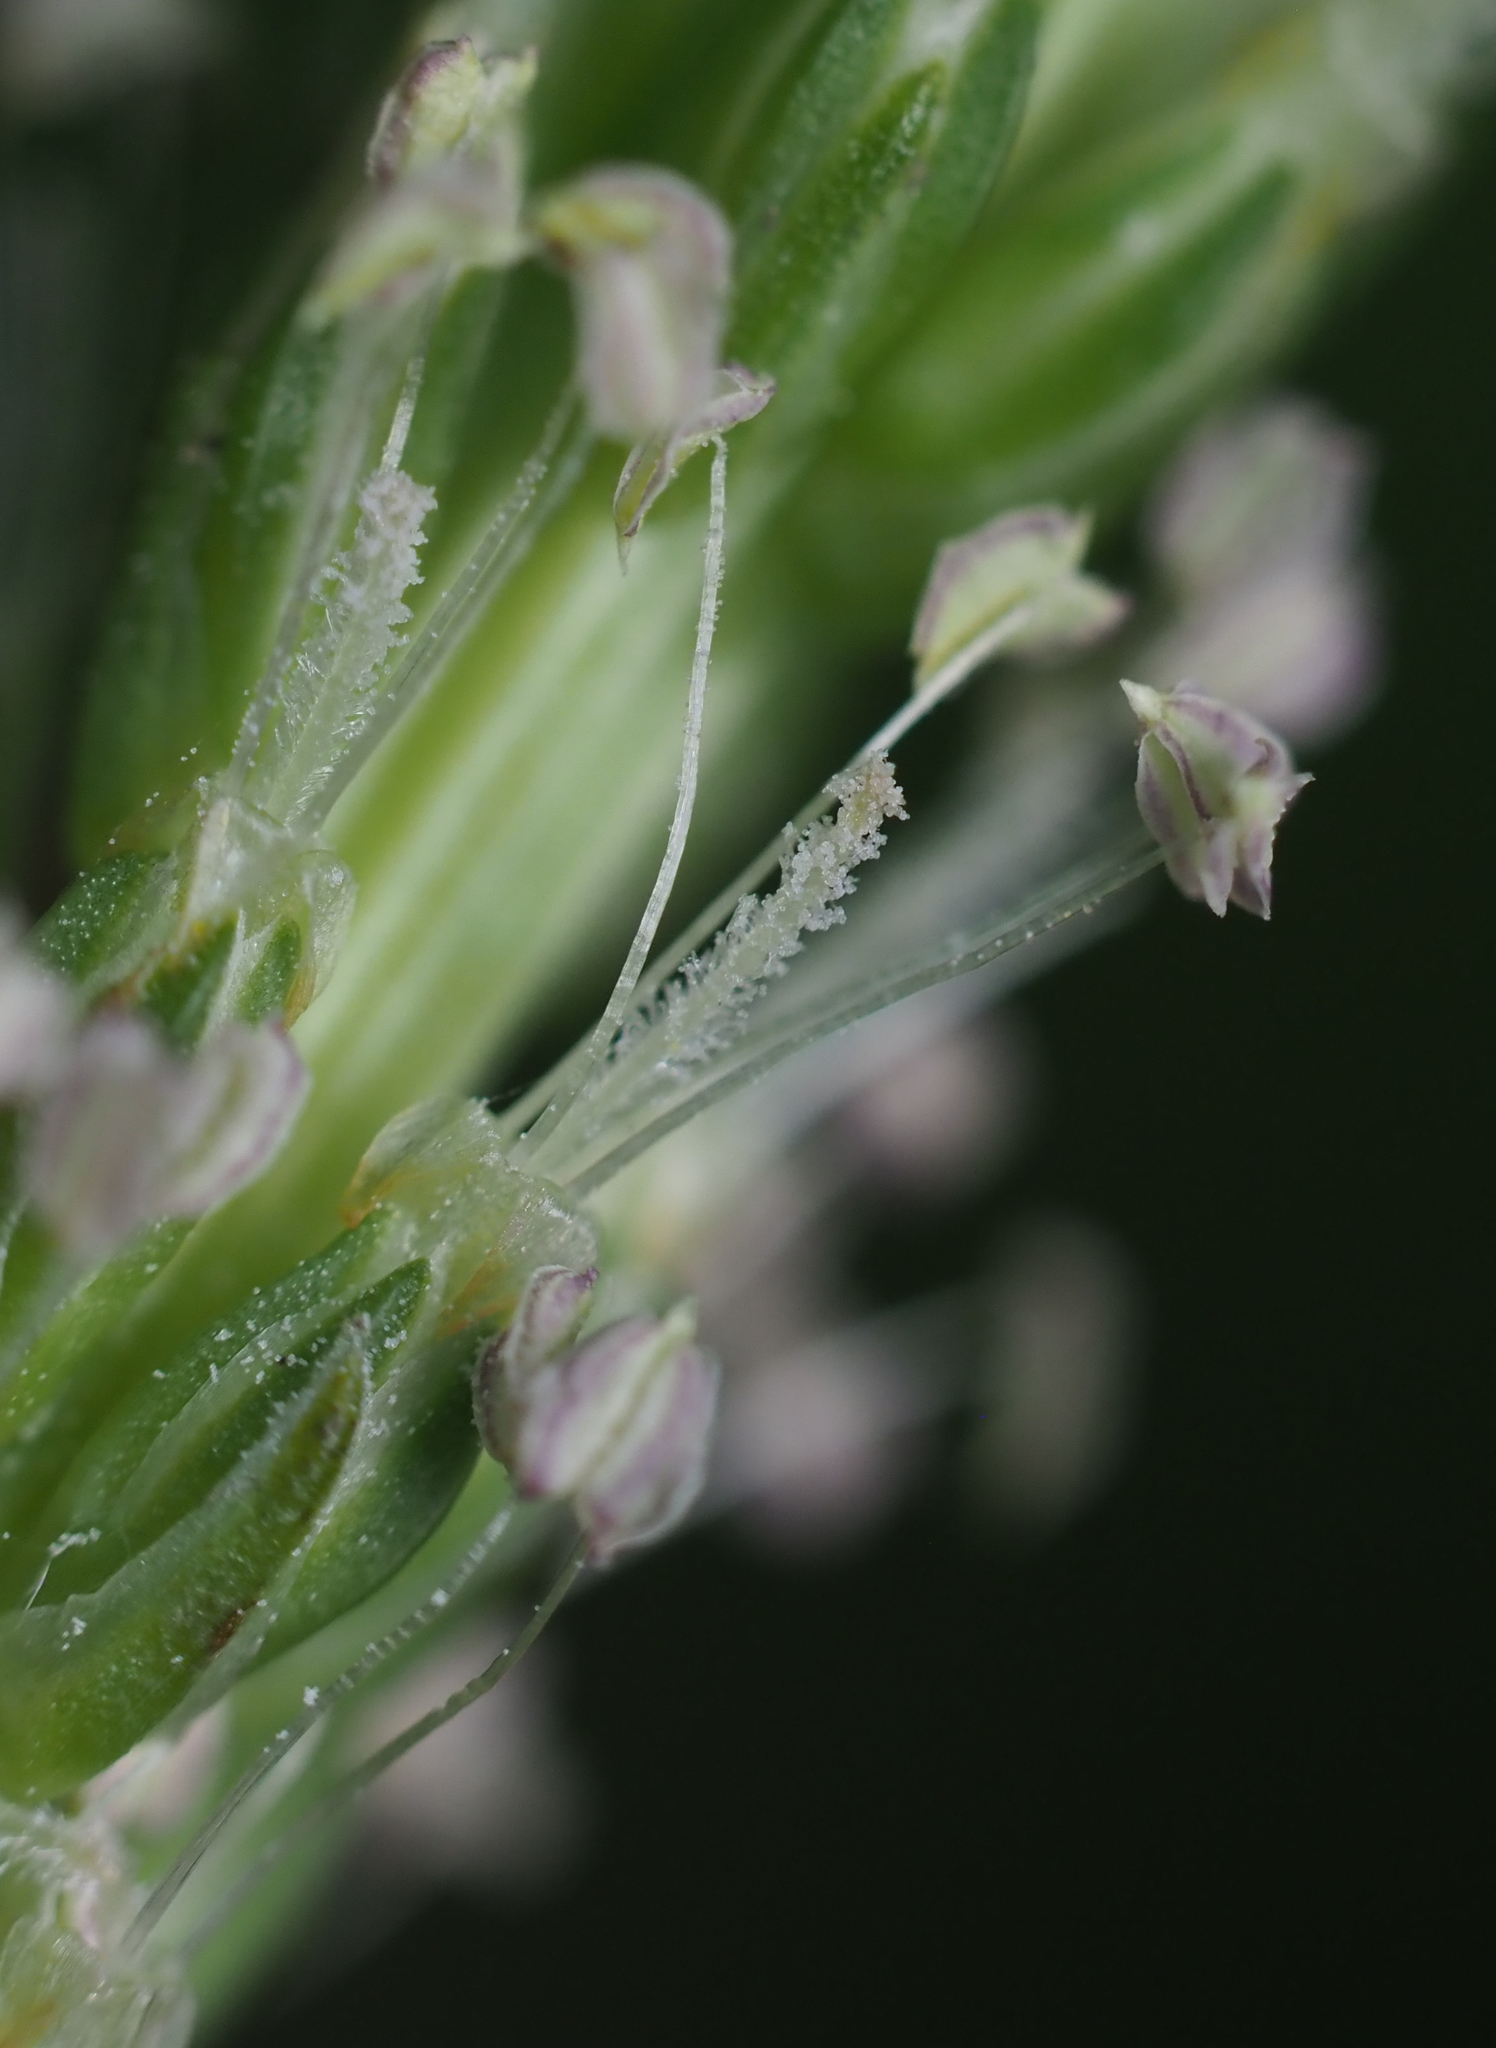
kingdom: Plantae
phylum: Tracheophyta
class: Magnoliopsida
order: Lamiales
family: Plantaginaceae
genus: Plantago
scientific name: Plantago major
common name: Common plantain
